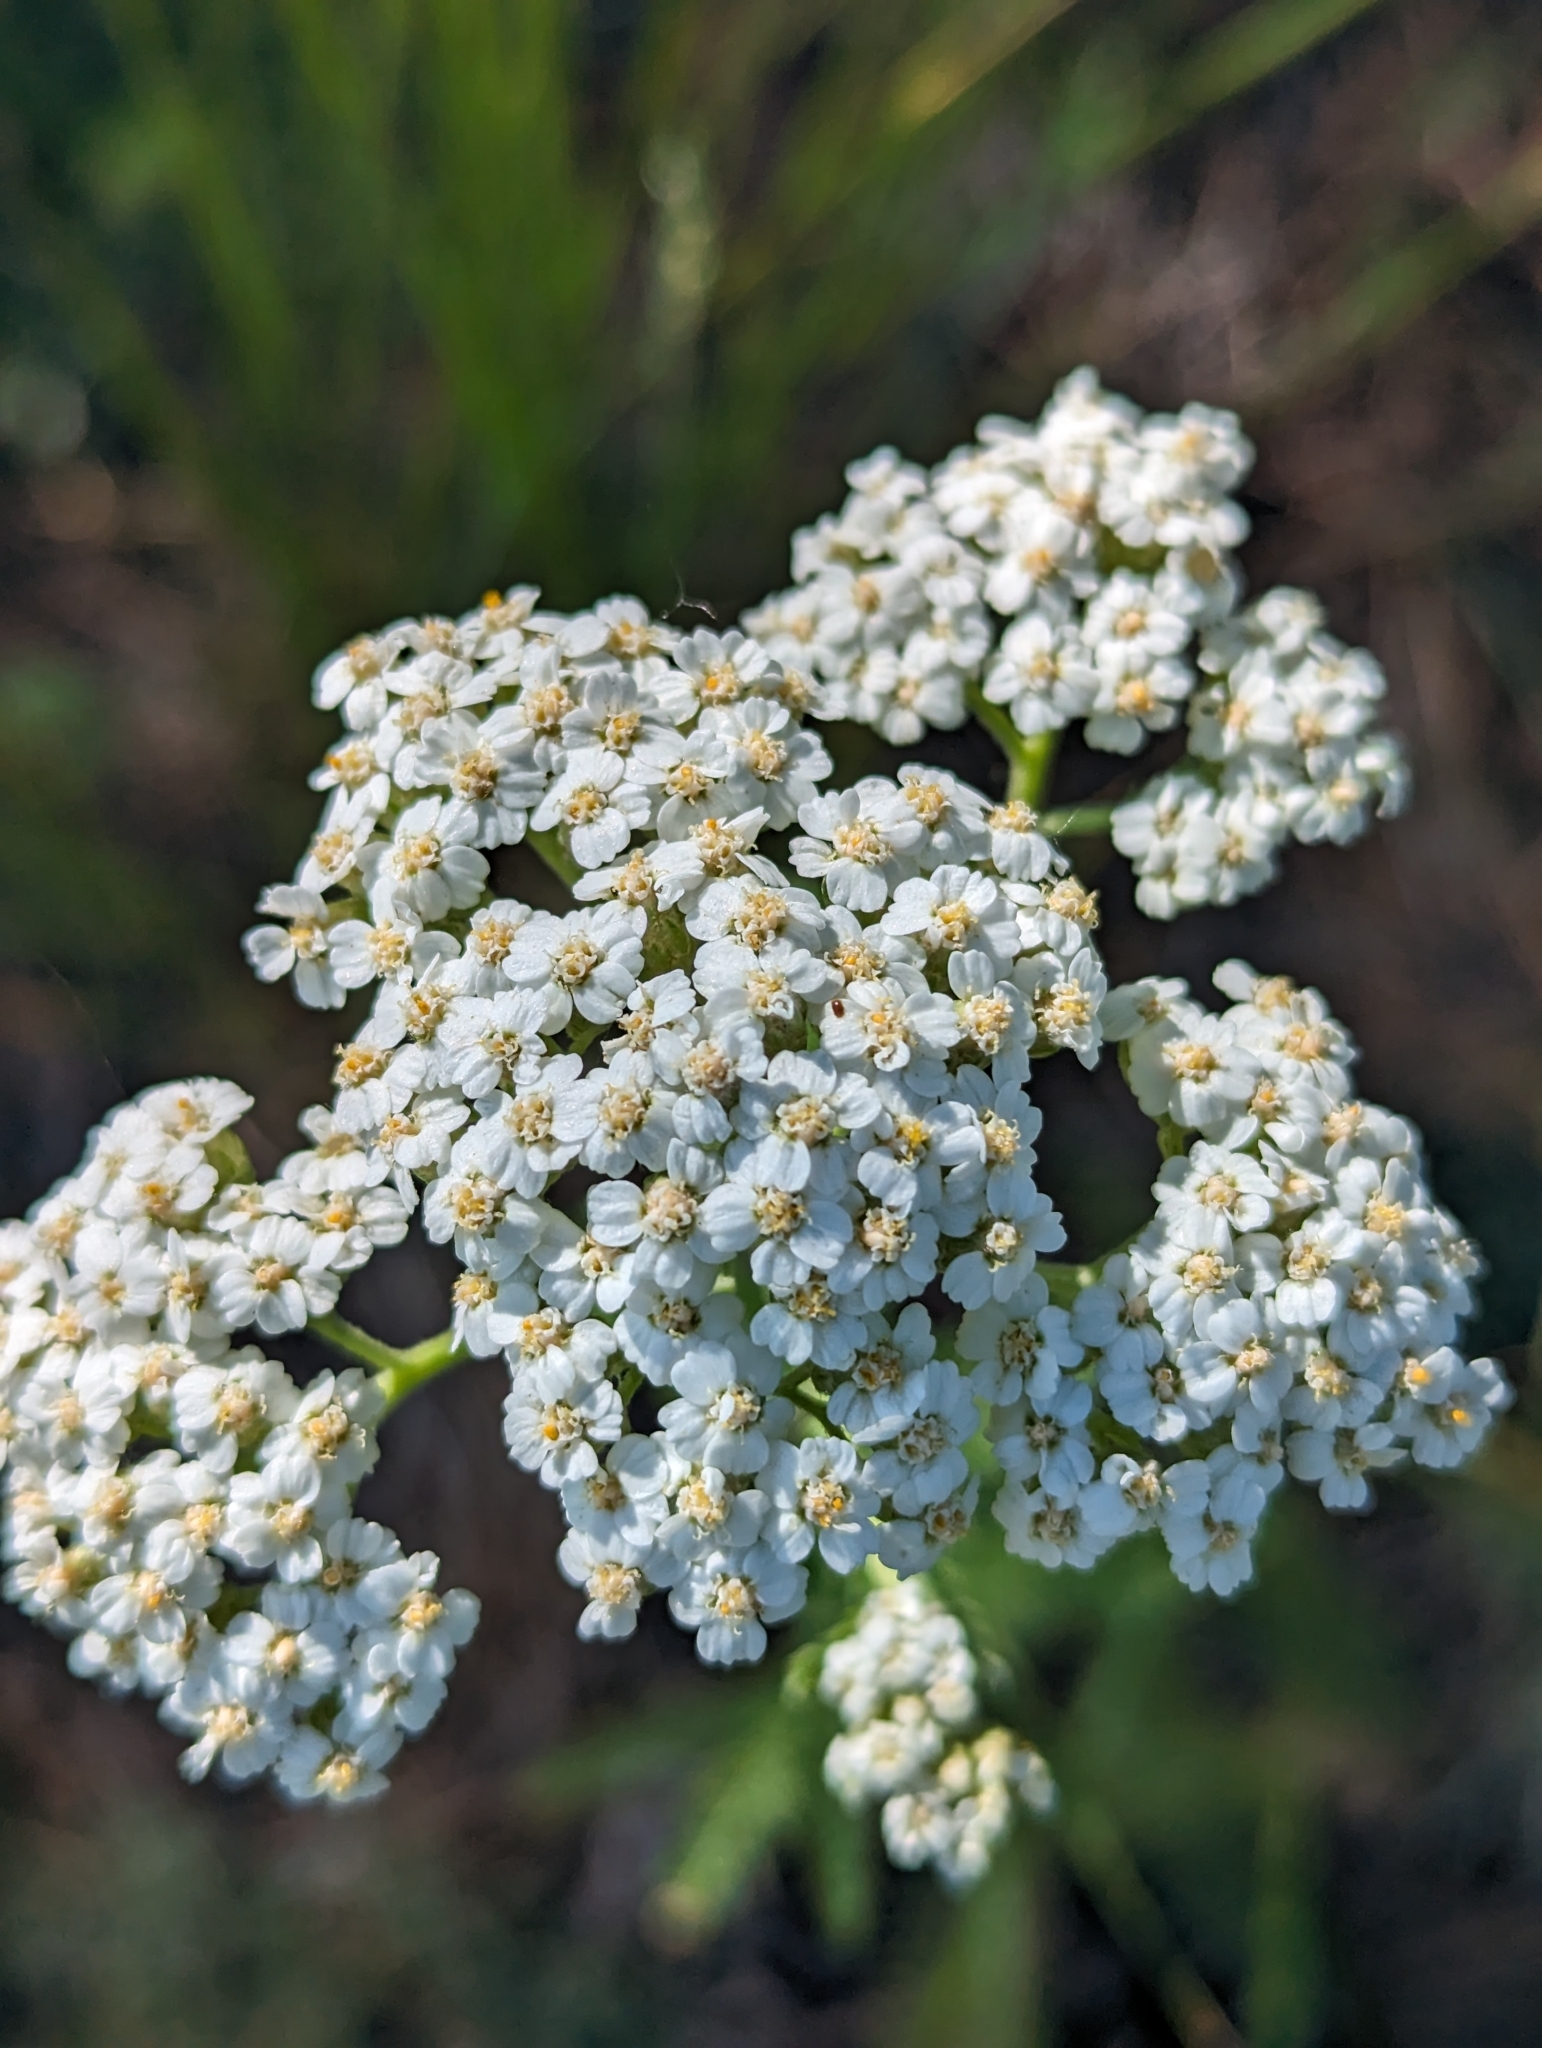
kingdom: Plantae
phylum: Tracheophyta
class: Magnoliopsida
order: Asterales
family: Asteraceae
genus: Achillea
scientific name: Achillea millefolium
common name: Yarrow
